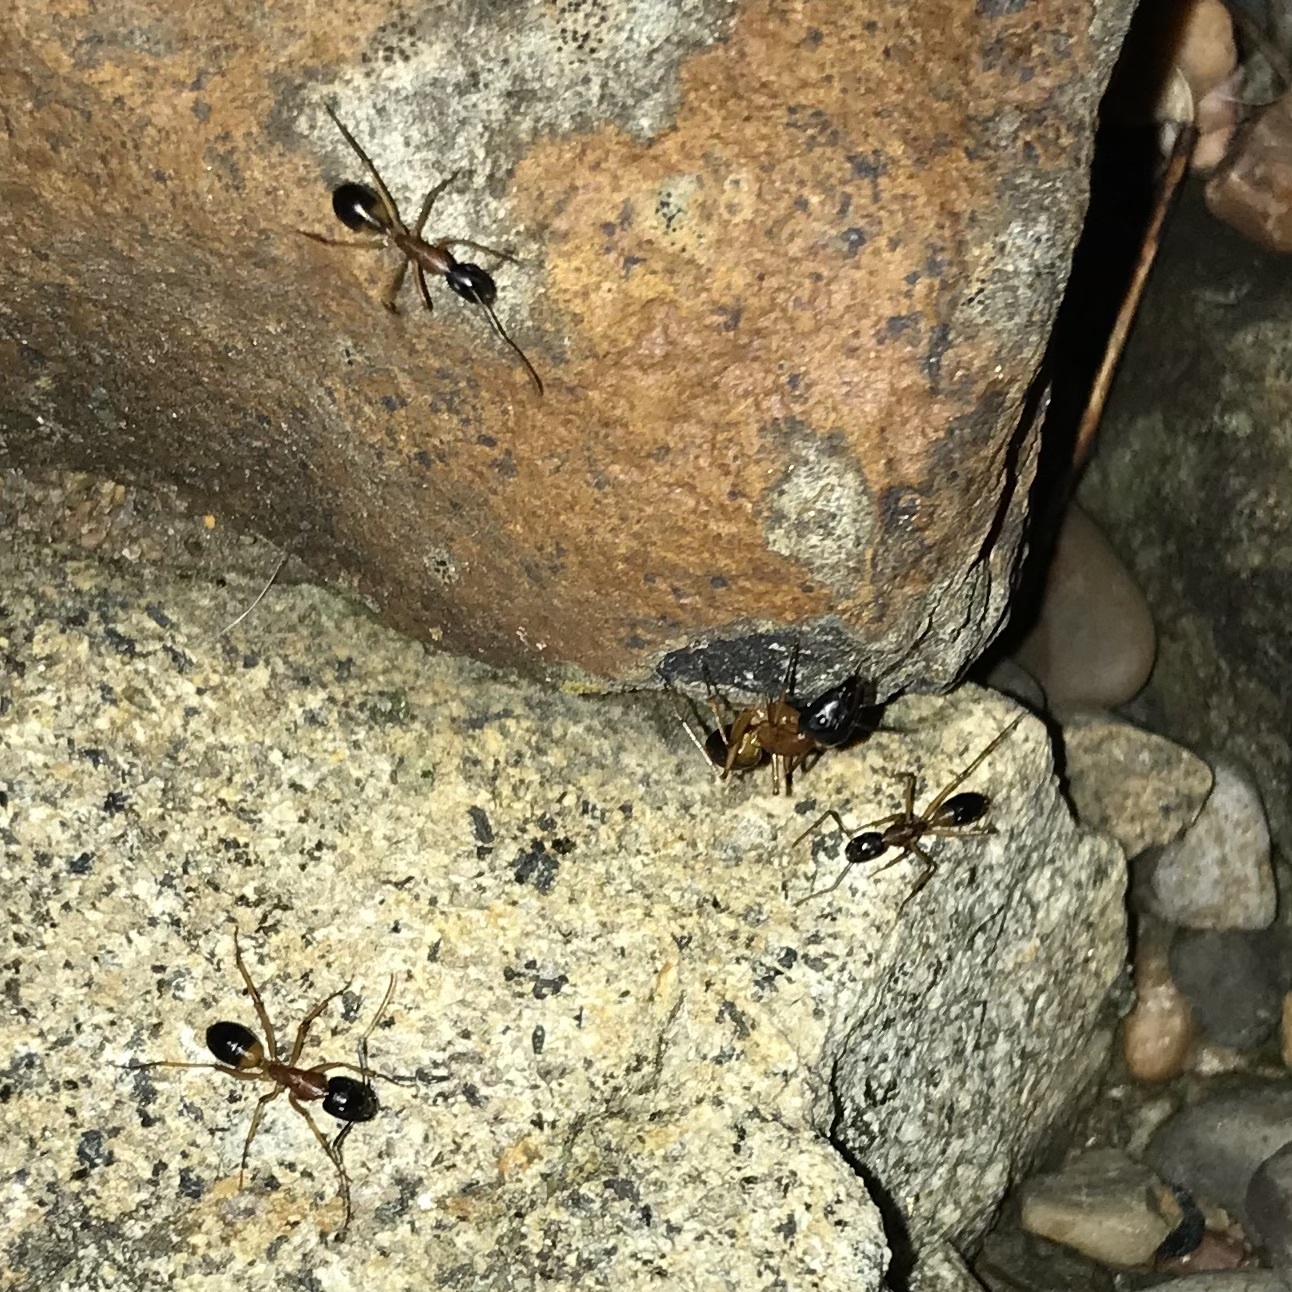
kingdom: Animalia
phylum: Arthropoda
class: Insecta
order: Hymenoptera
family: Formicidae
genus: Camponotus
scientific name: Camponotus consobrinus
